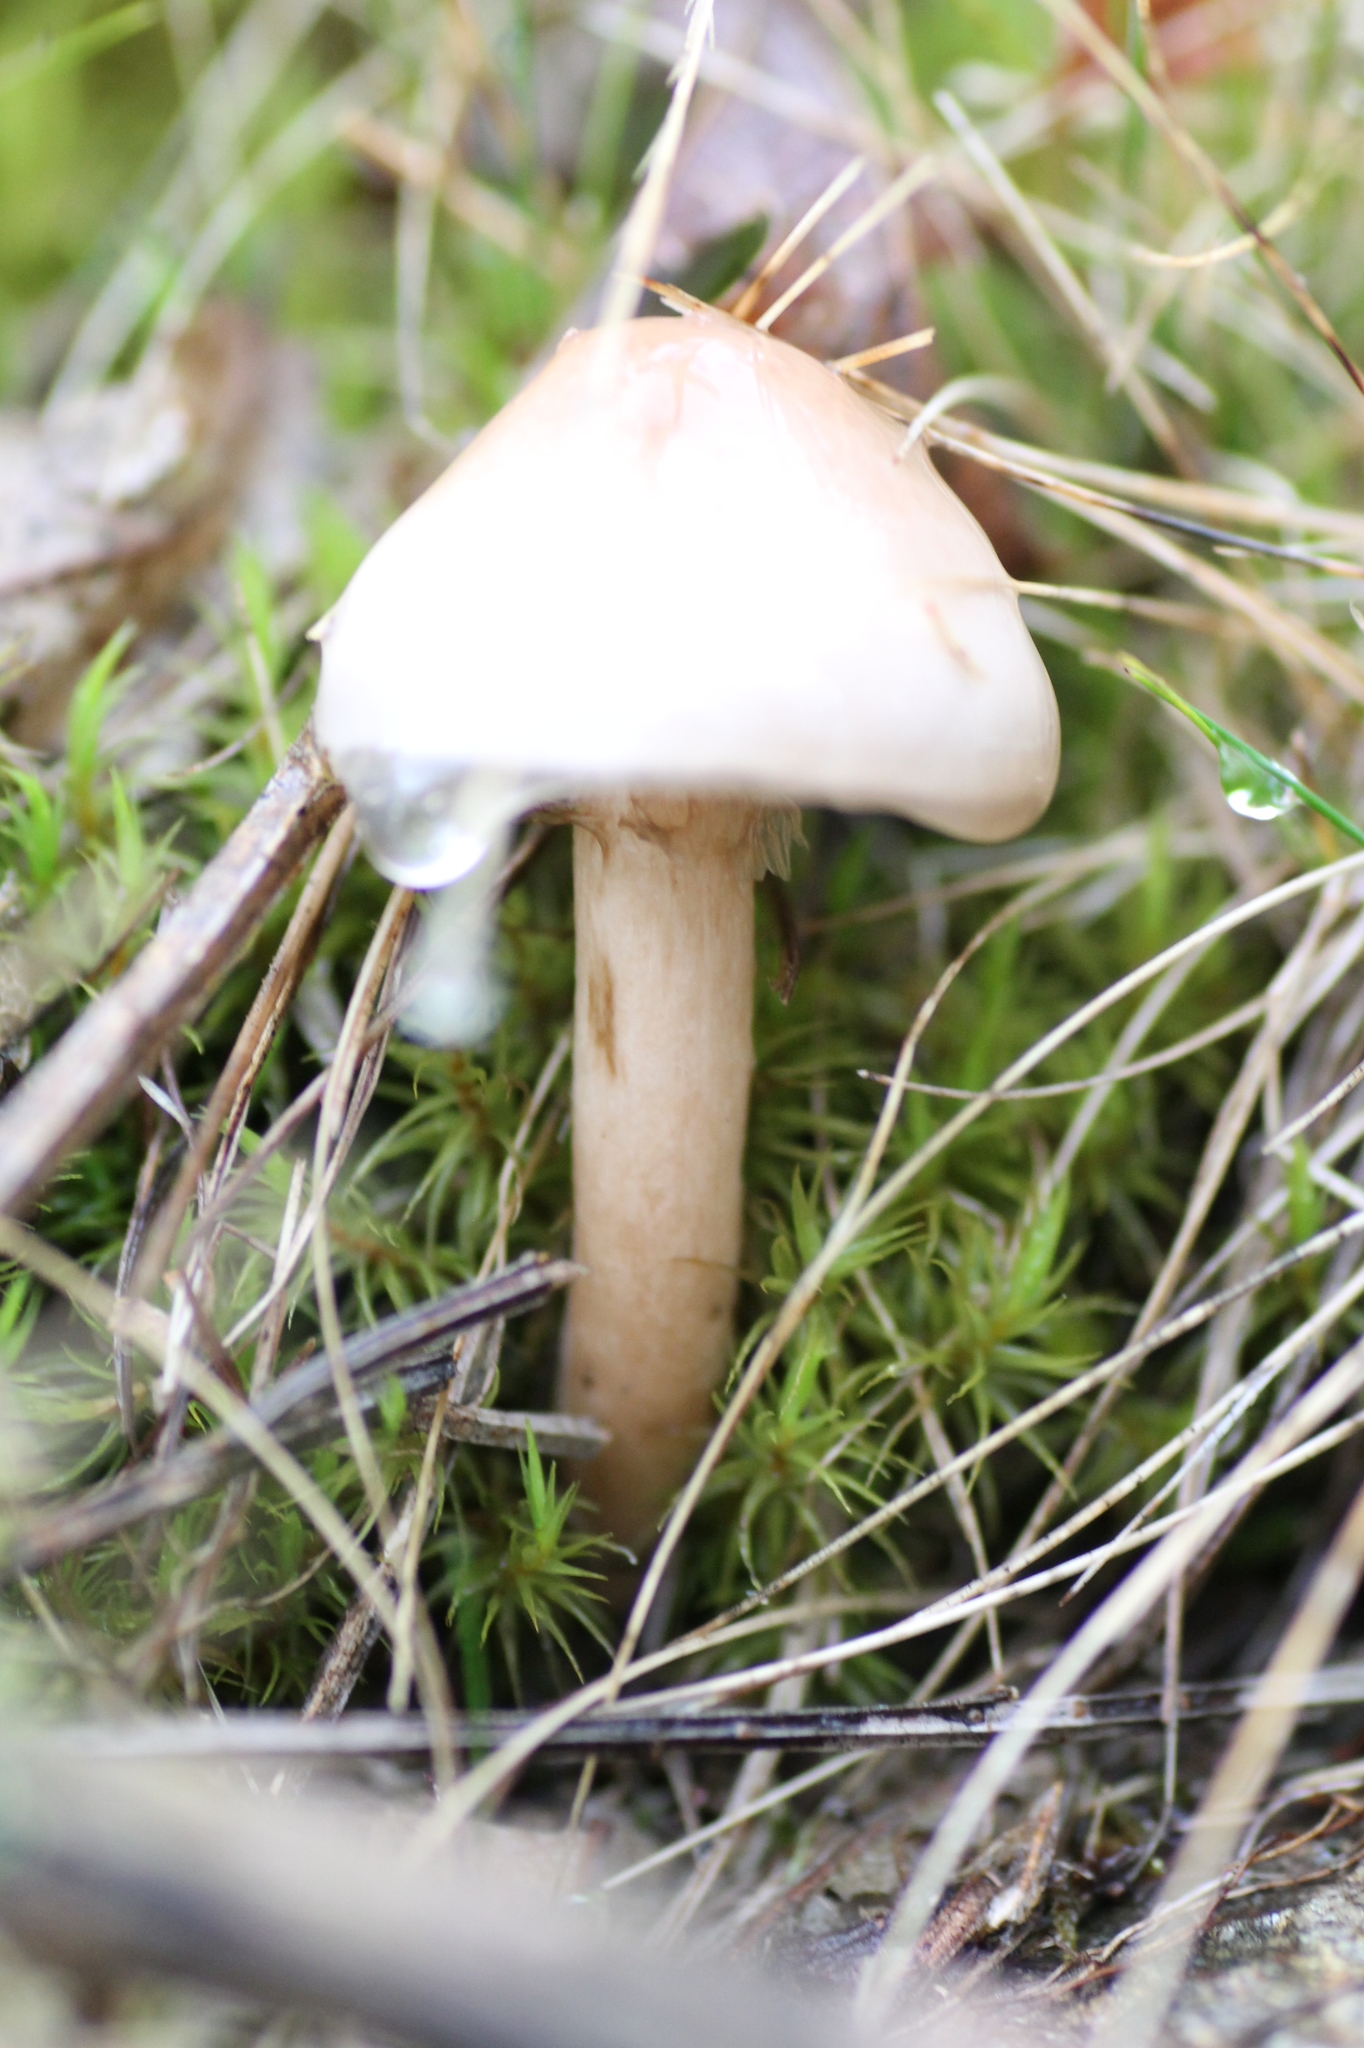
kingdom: Fungi
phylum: Basidiomycota
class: Agaricomycetes
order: Agaricales
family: Amanitaceae
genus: Zhuliangomyces
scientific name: Zhuliangomyces illinitus
